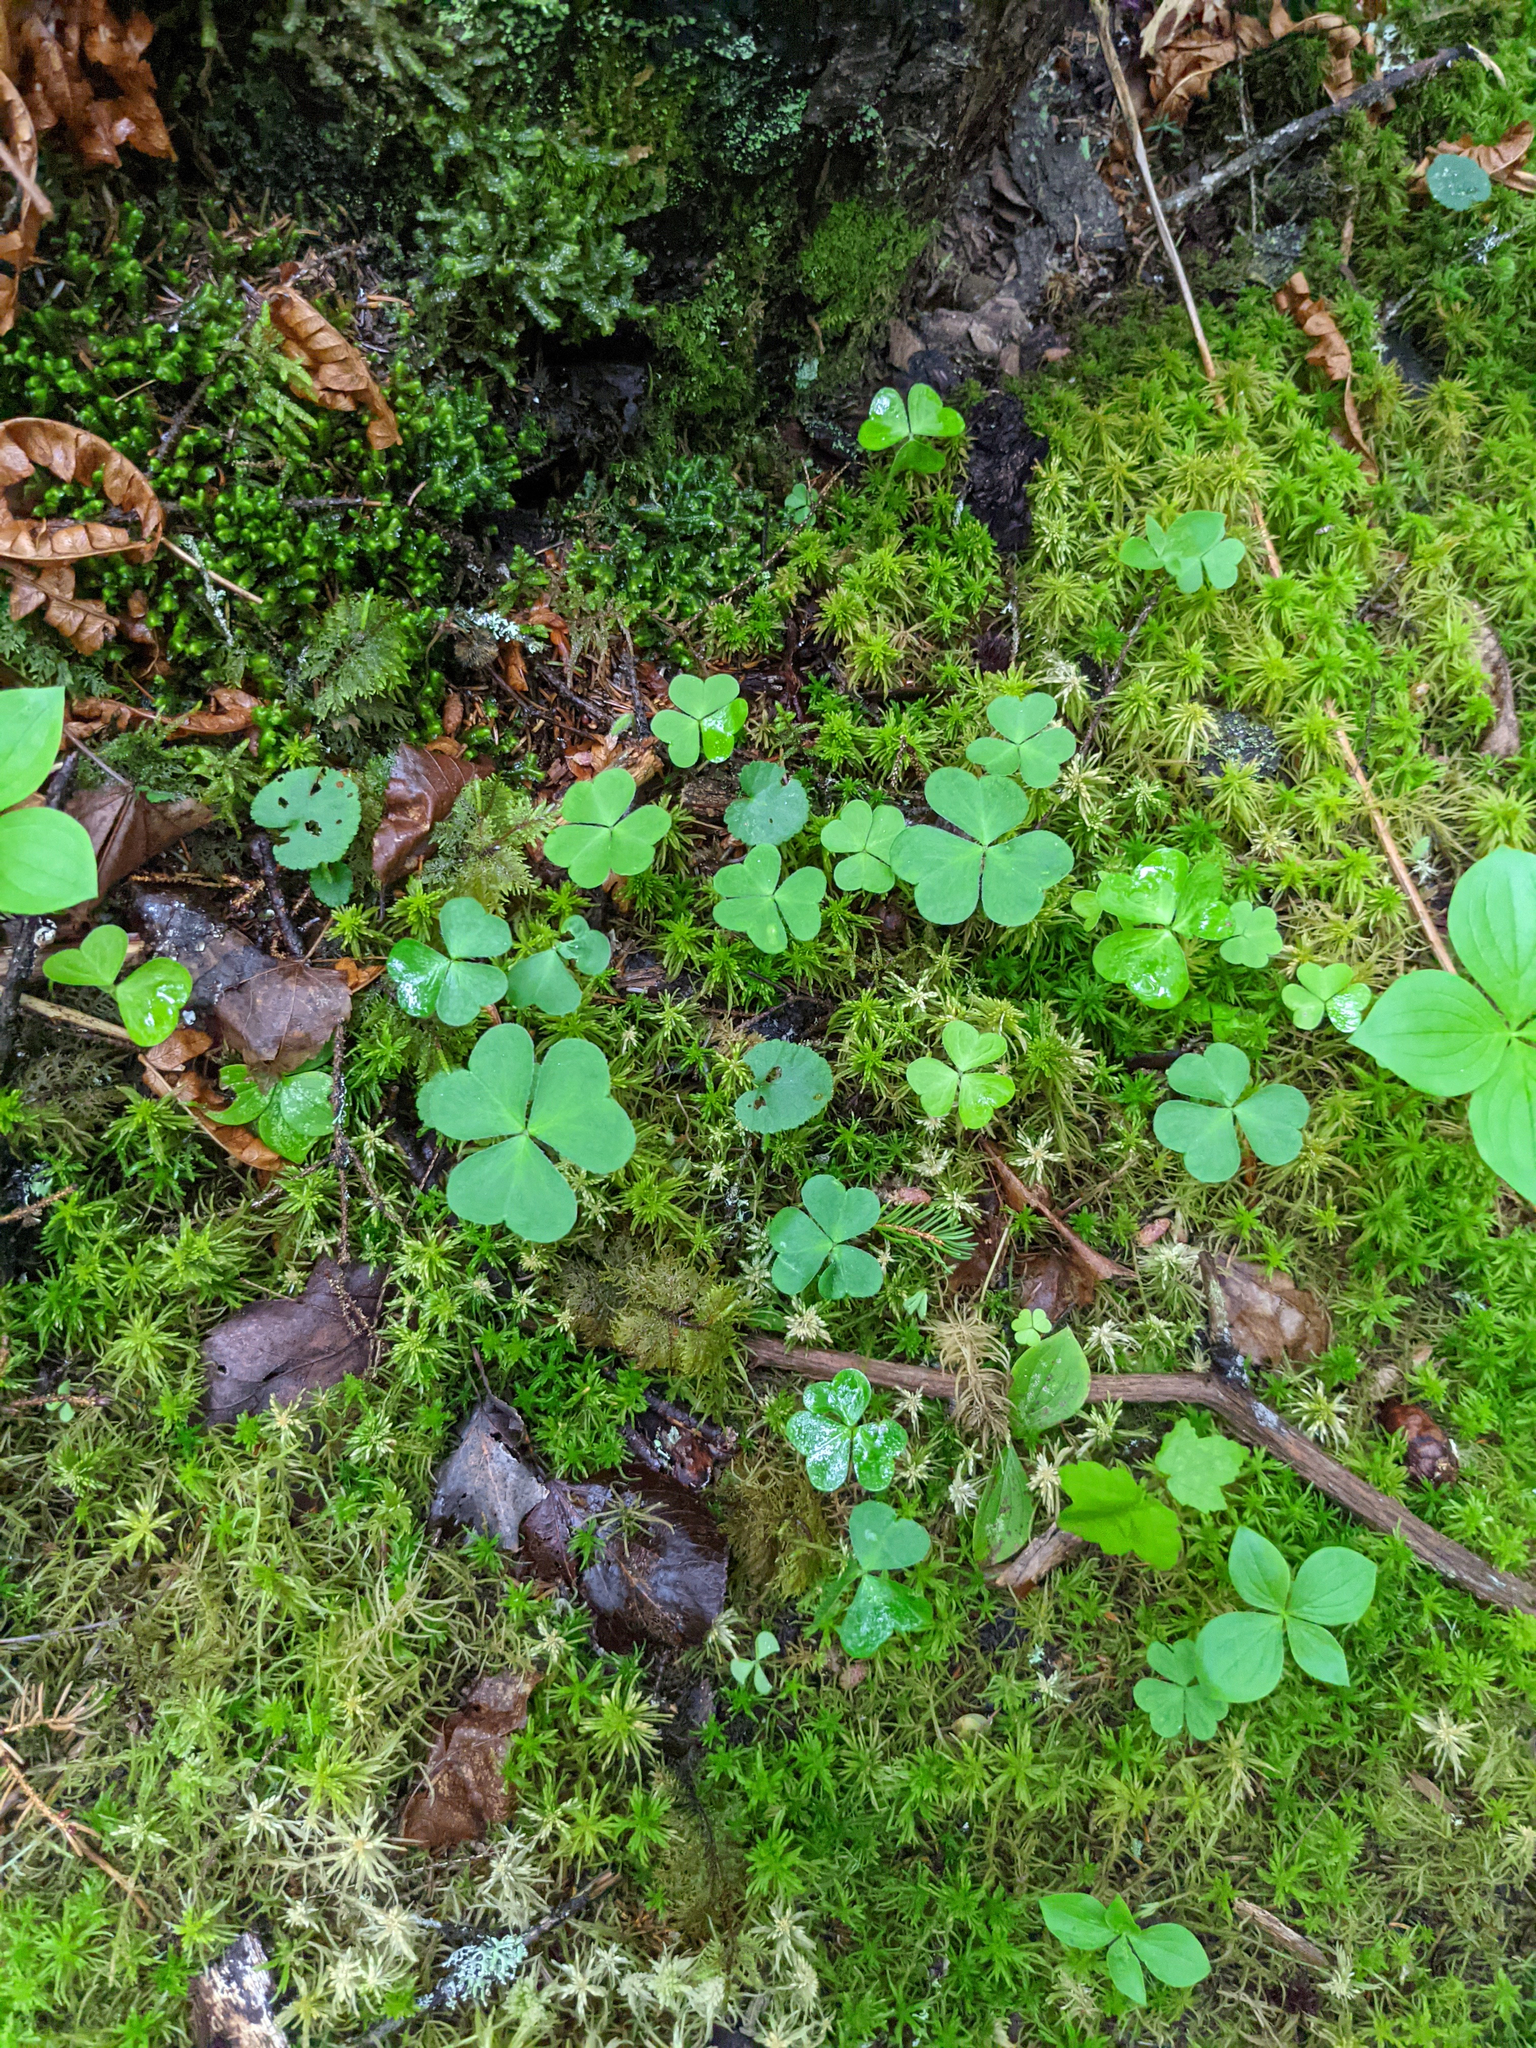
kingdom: Plantae
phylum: Tracheophyta
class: Magnoliopsida
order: Oxalidales
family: Oxalidaceae
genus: Oxalis
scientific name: Oxalis montana
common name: American wood-sorrel
